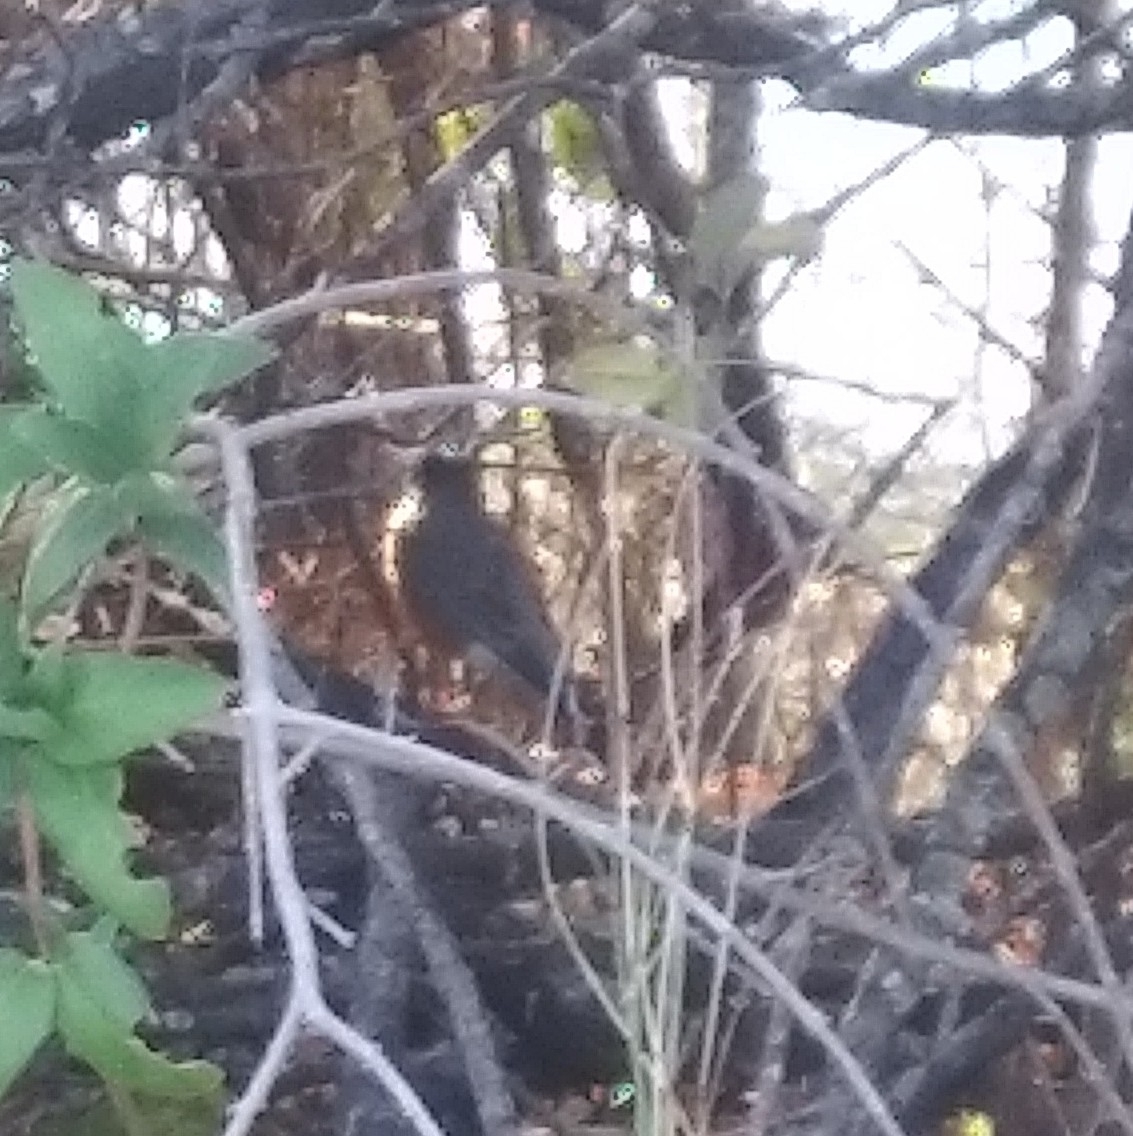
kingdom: Animalia
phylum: Chordata
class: Aves
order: Passeriformes
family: Turdidae
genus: Turdus
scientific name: Turdus migratorius
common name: American robin
